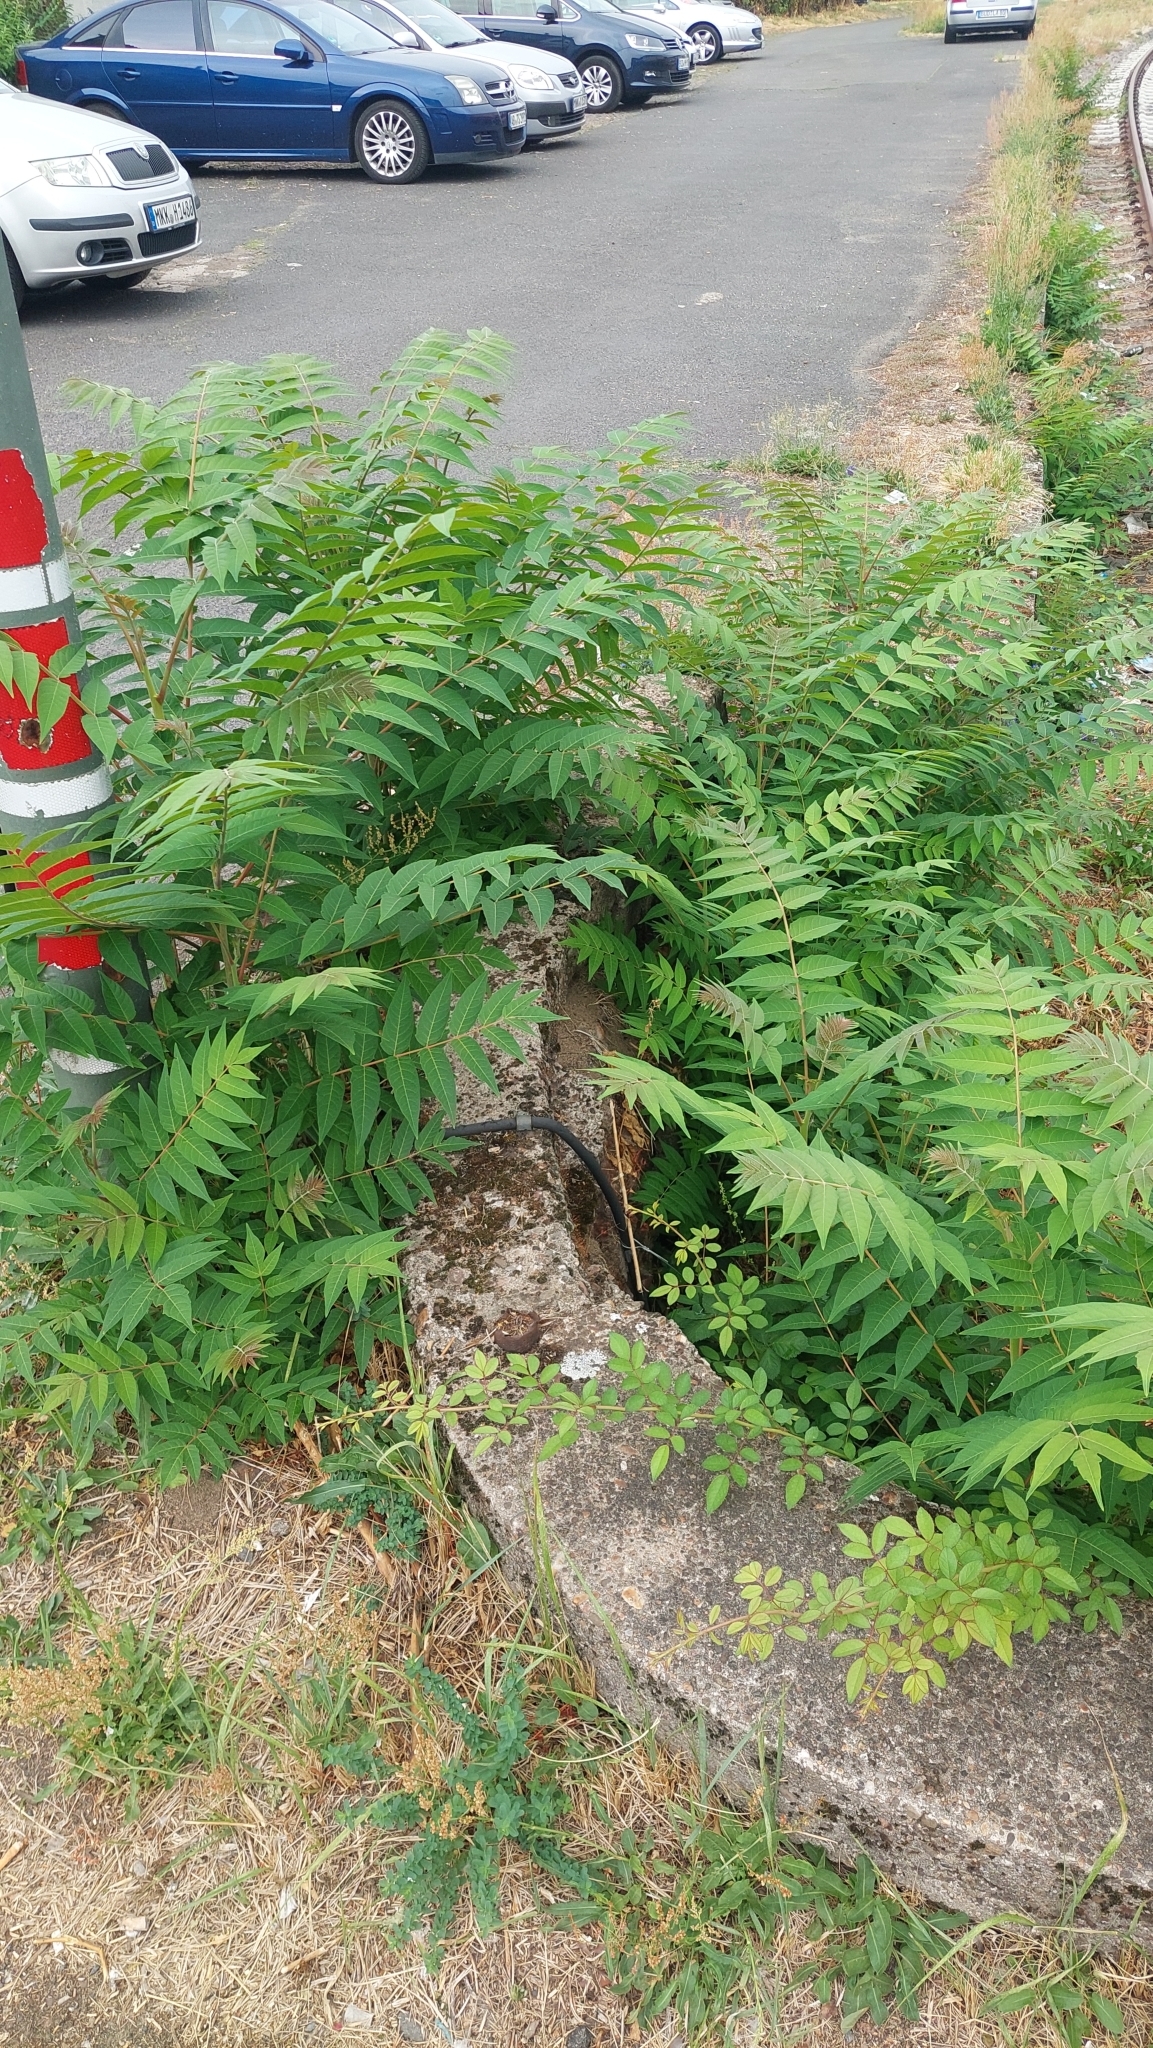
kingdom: Plantae
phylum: Tracheophyta
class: Magnoliopsida
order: Sapindales
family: Simaroubaceae
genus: Ailanthus
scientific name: Ailanthus altissima
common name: Tree-of-heaven
